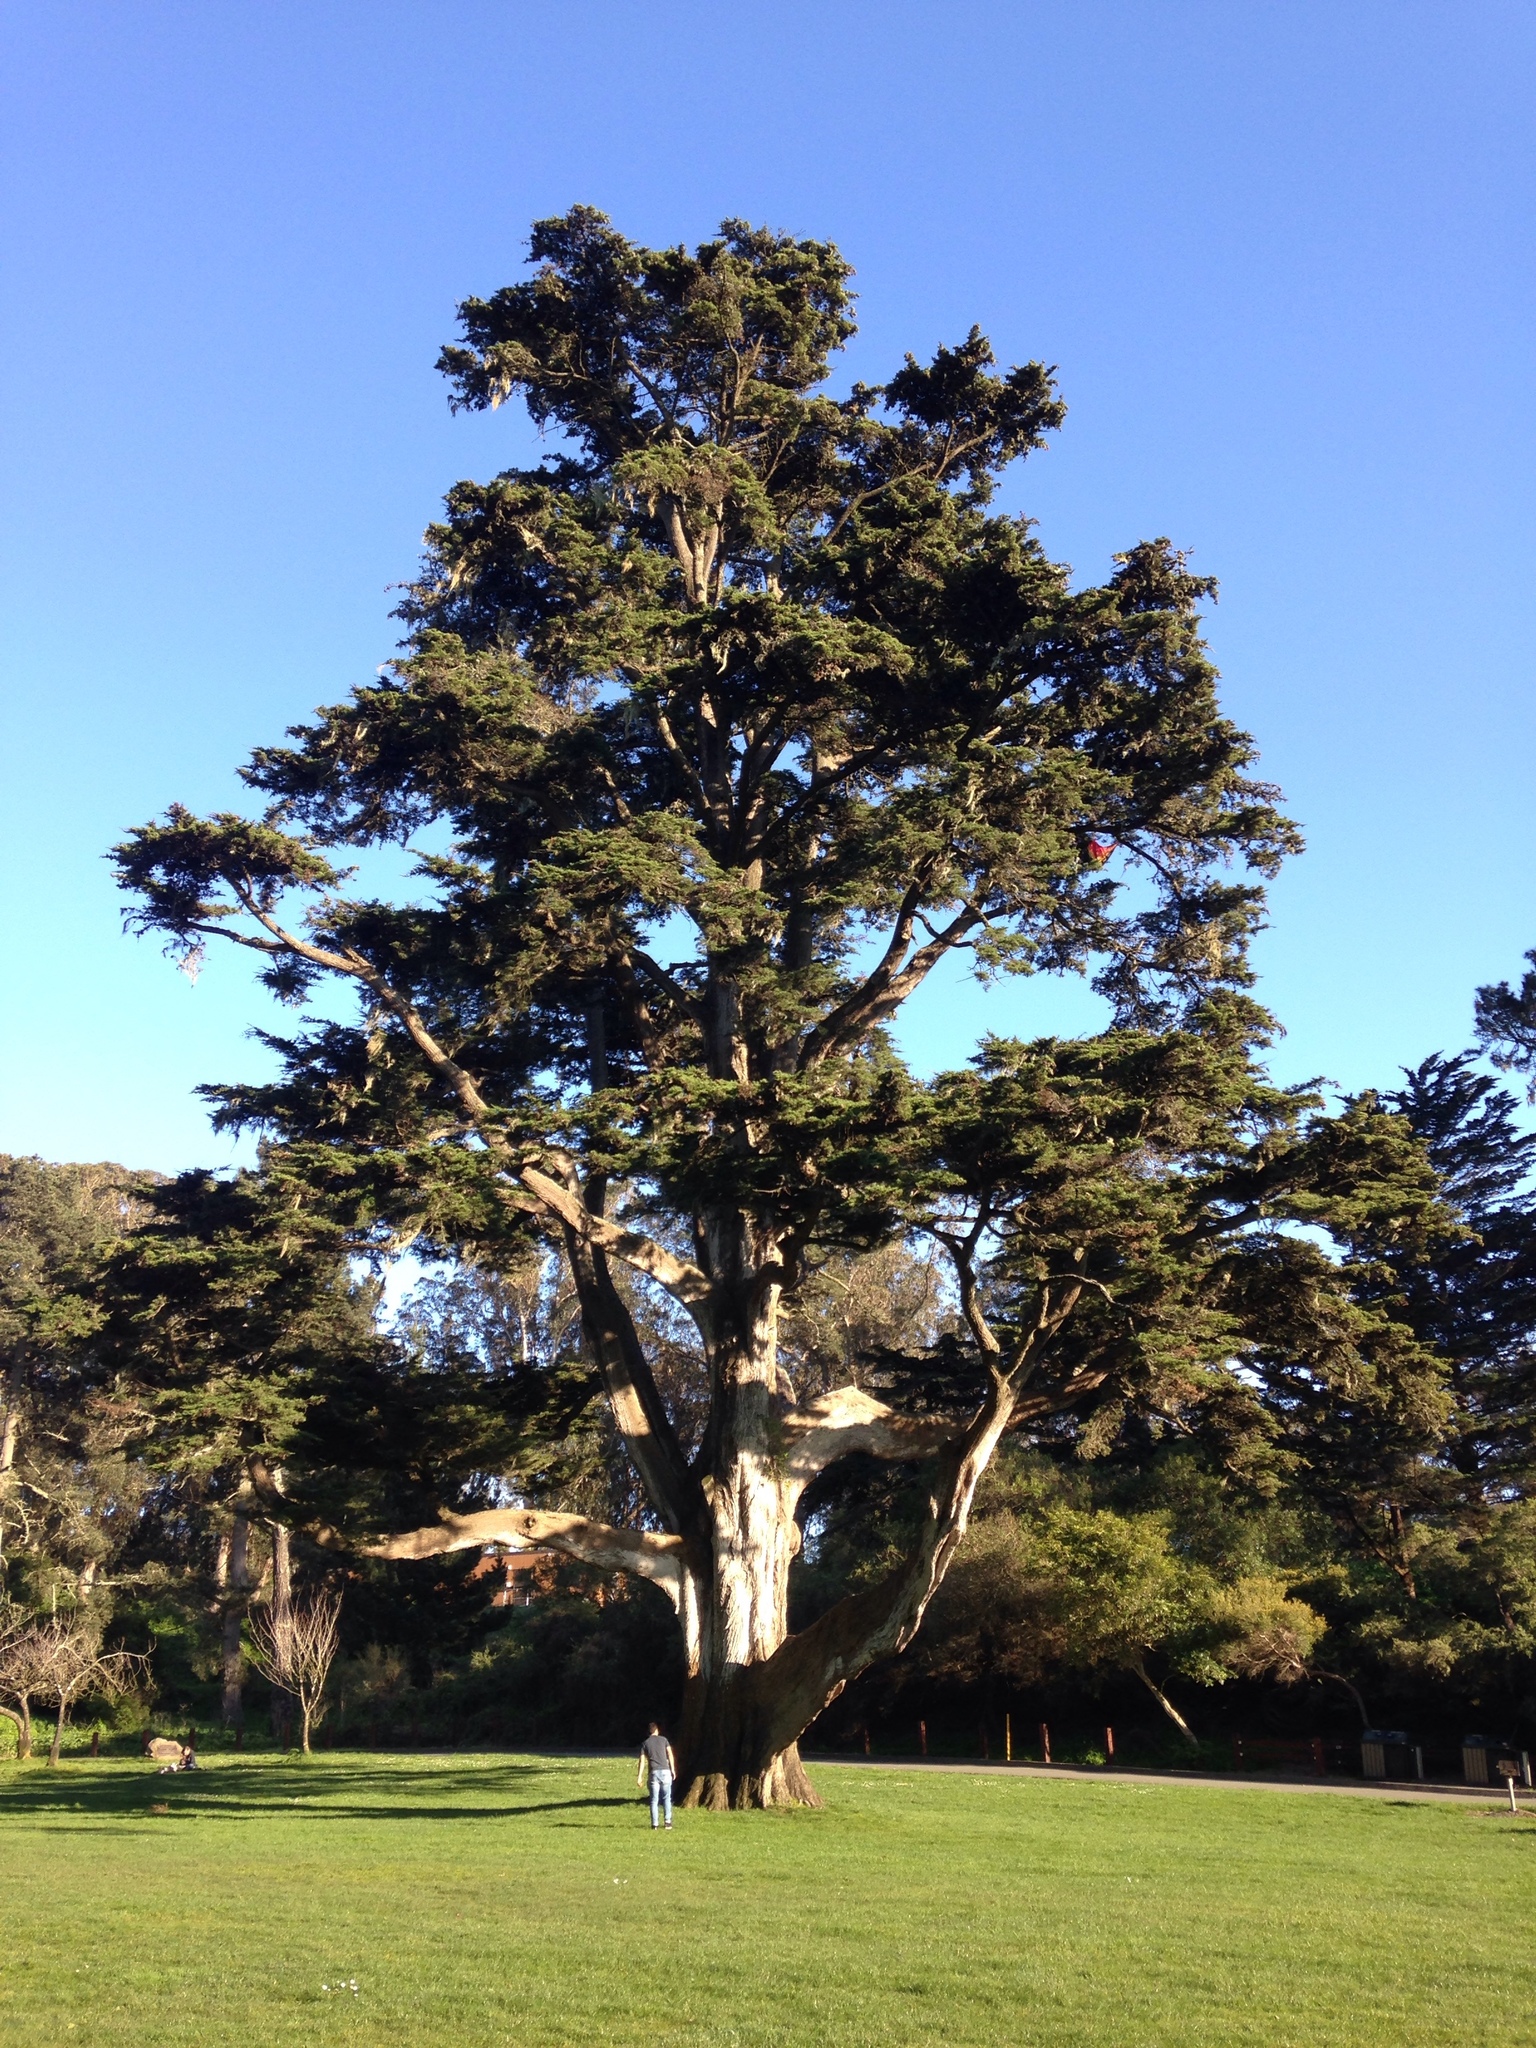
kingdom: Plantae
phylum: Tracheophyta
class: Pinopsida
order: Pinales
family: Cupressaceae
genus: Cupressus
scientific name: Cupressus macrocarpa
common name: Monterey cypress
